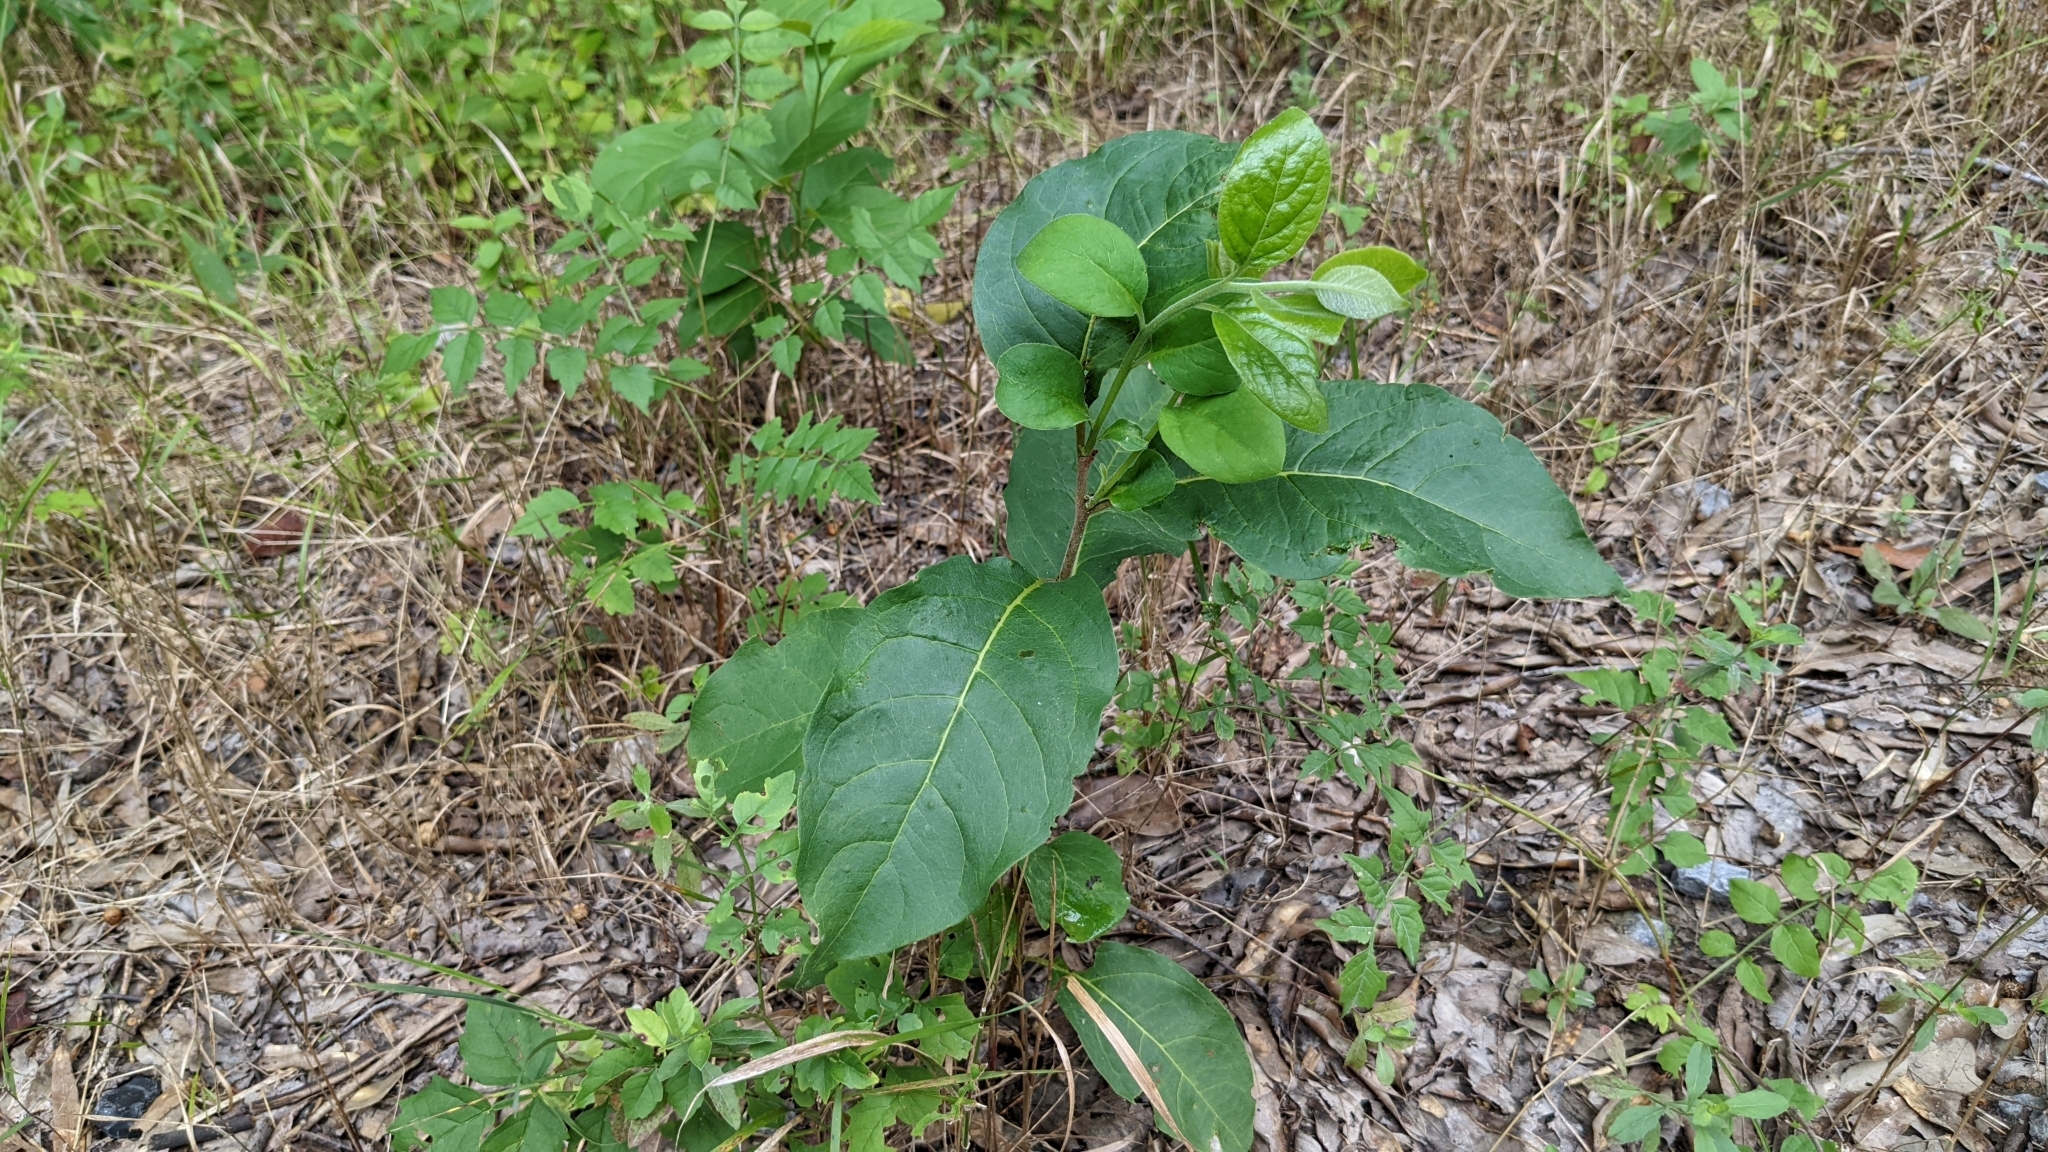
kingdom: Plantae
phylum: Tracheophyta
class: Magnoliopsida
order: Ericales
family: Ebenaceae
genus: Diospyros
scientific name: Diospyros virginiana
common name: Persimmon
